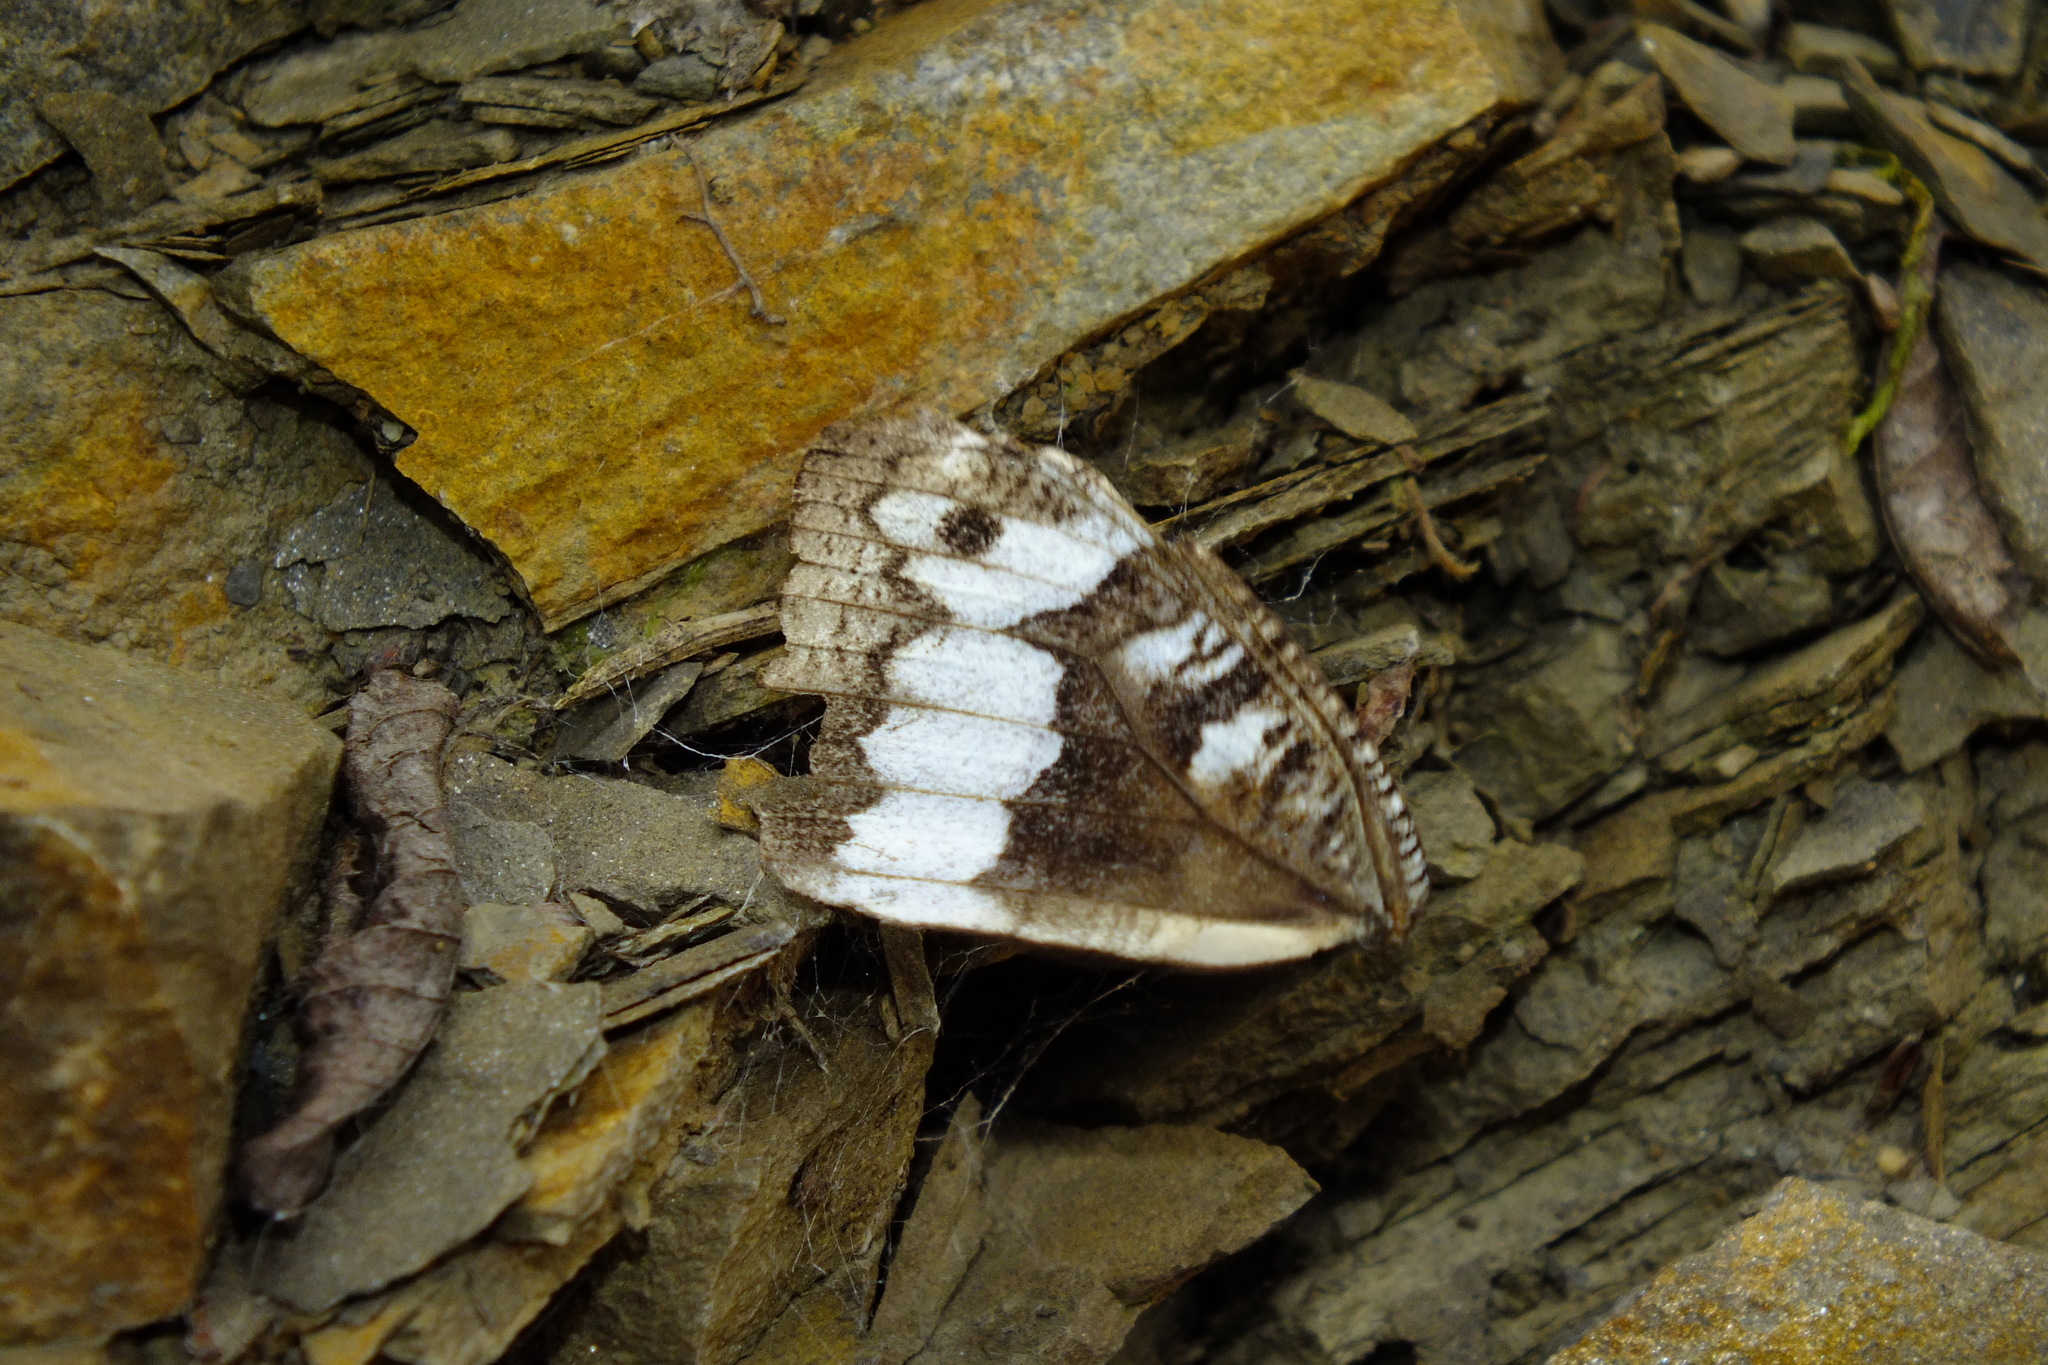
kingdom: Animalia
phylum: Arthropoda
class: Insecta
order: Lepidoptera
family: Lycaenidae
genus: Loweia
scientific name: Loweia tityrus
